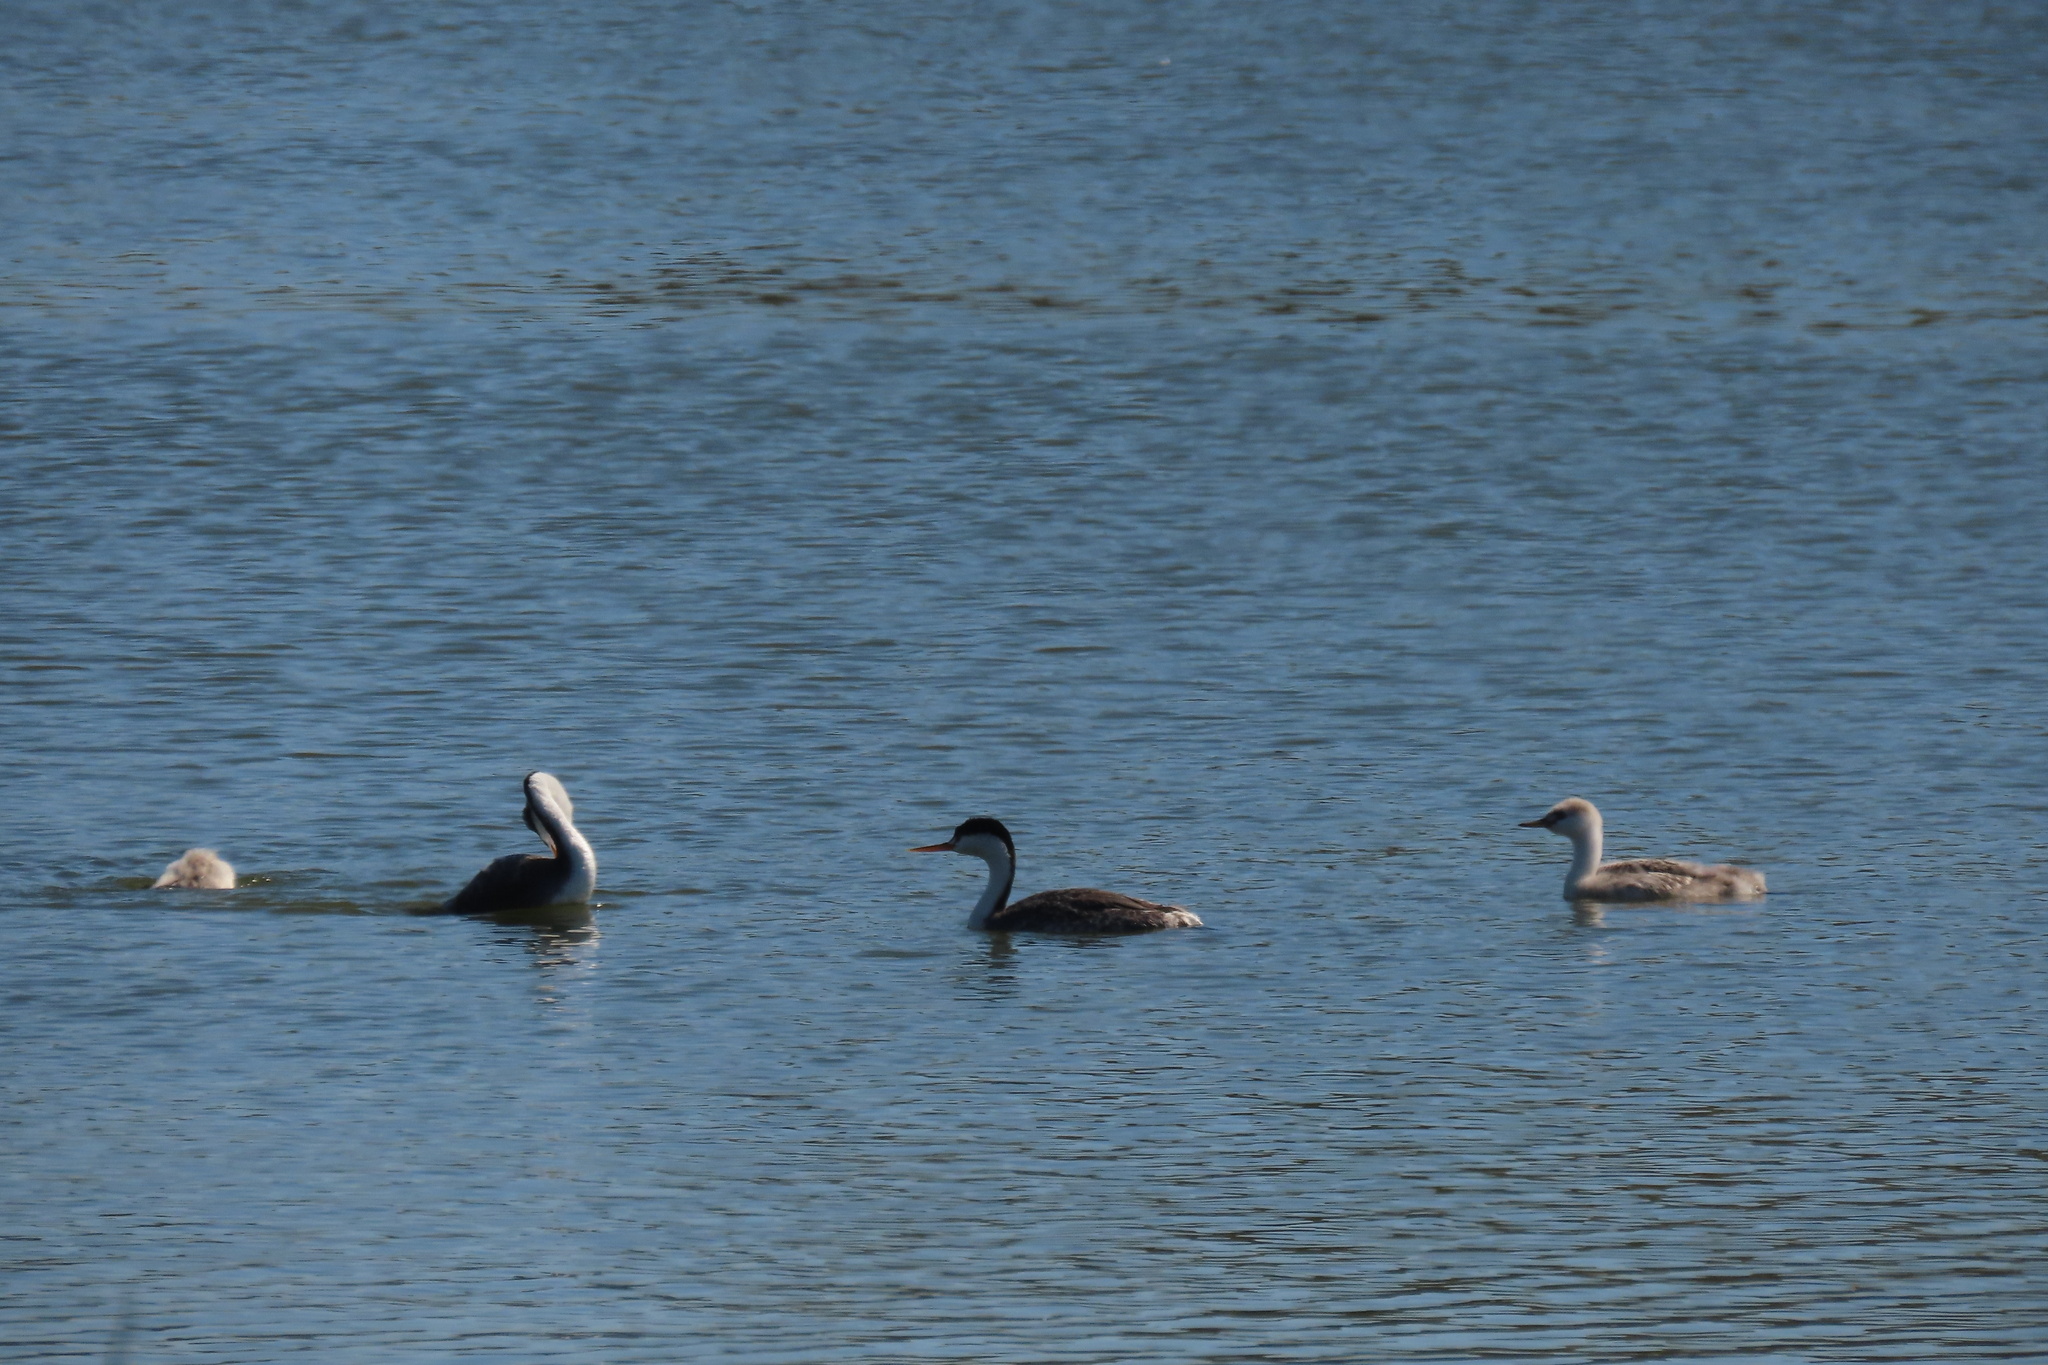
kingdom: Animalia
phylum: Chordata
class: Aves
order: Podicipediformes
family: Podicipedidae
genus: Aechmophorus
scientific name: Aechmophorus clarkii
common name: Clark's grebe
